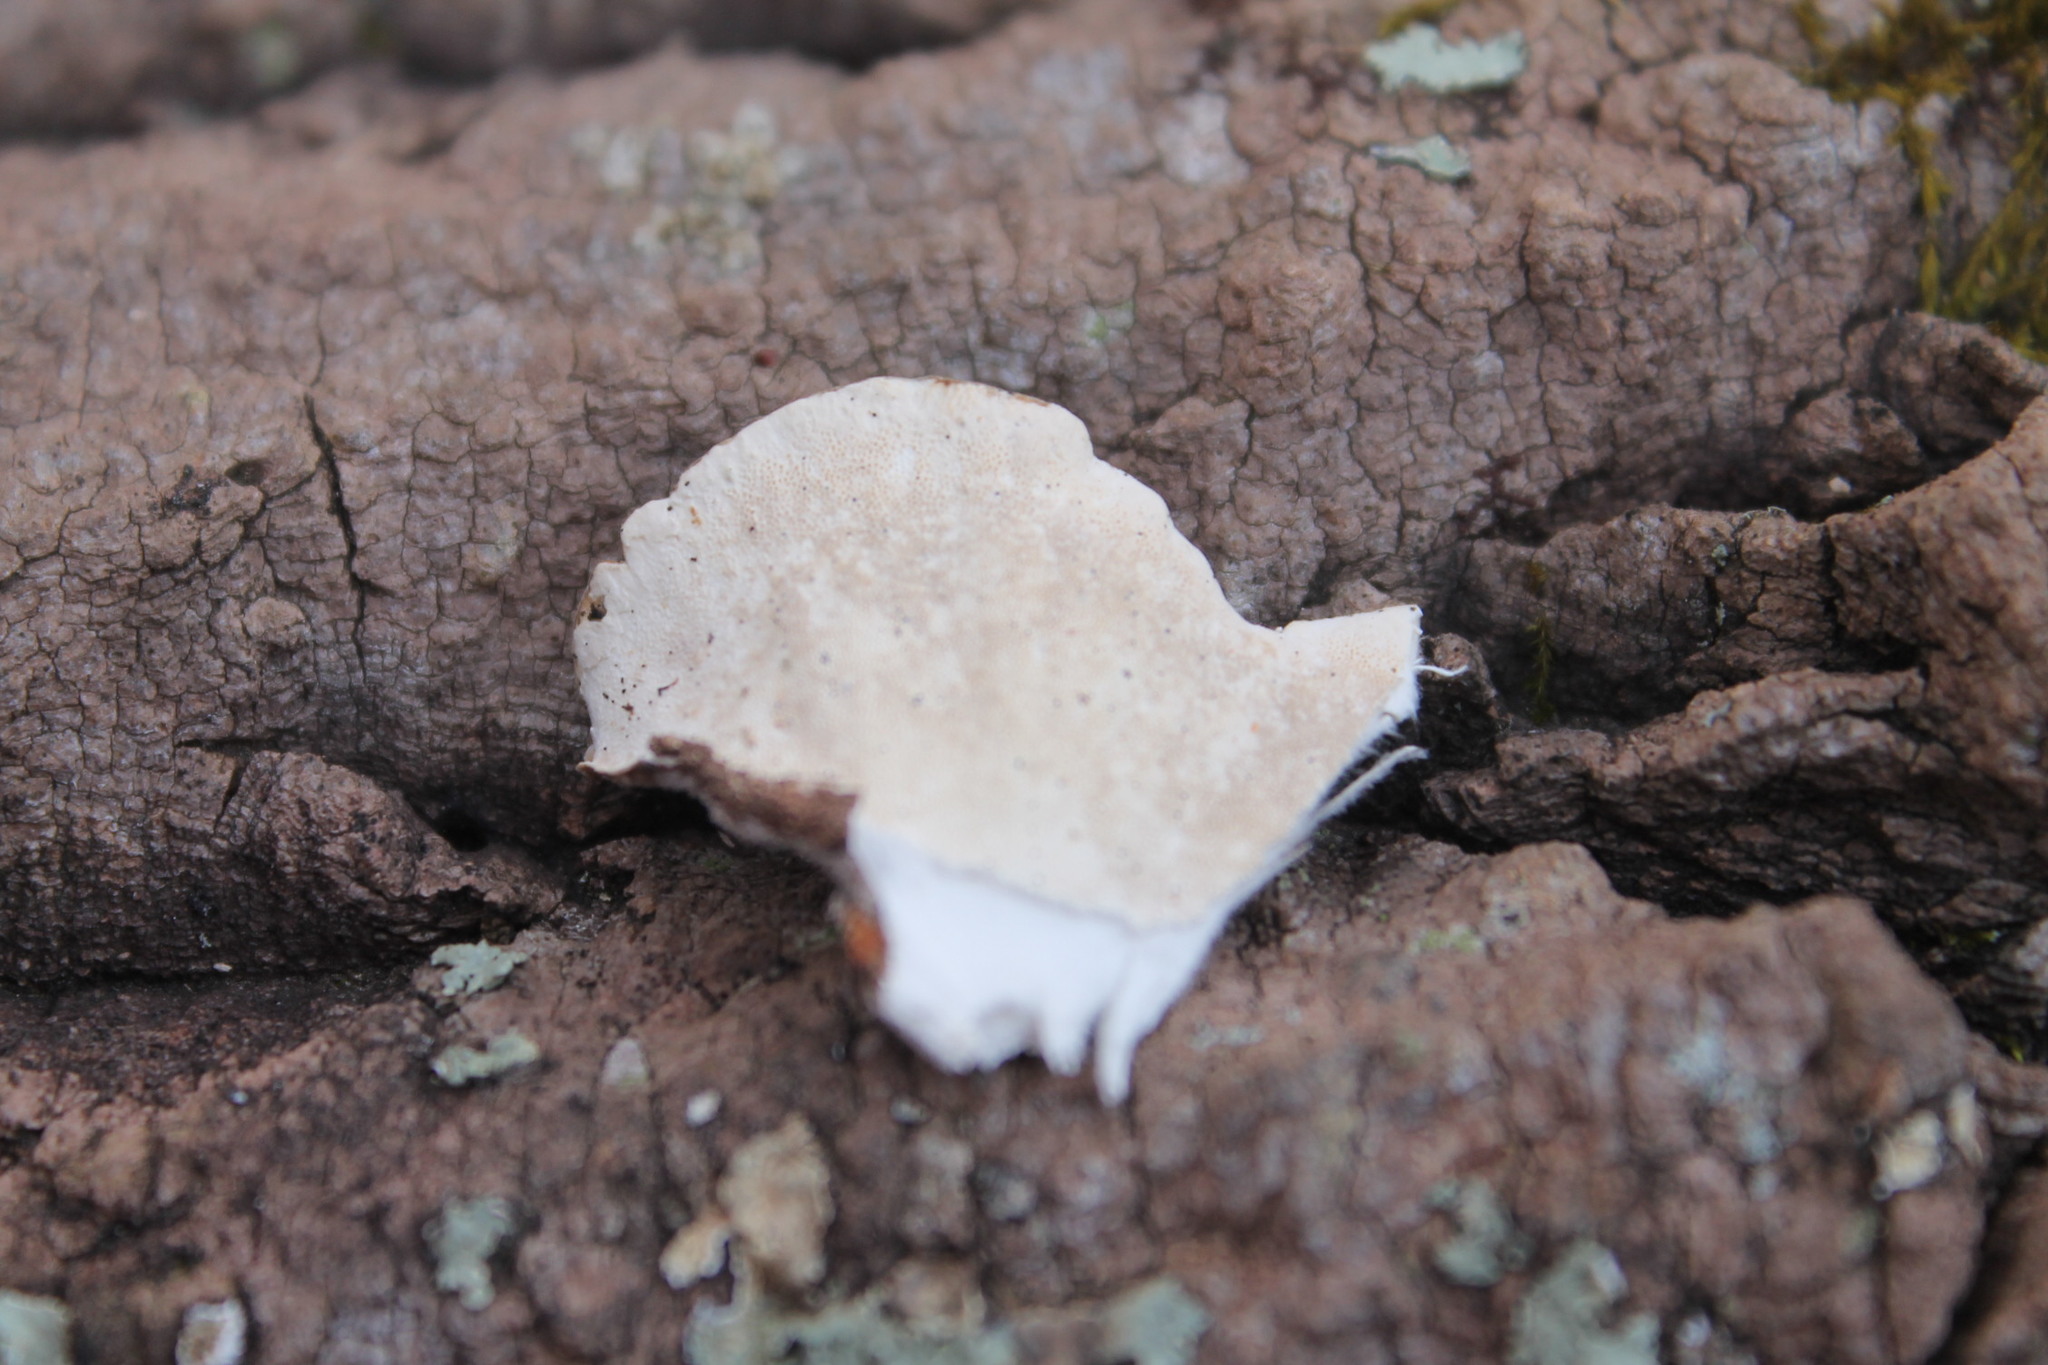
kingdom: Fungi
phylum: Basidiomycota
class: Agaricomycetes
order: Polyporales
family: Polyporaceae
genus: Trametes
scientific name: Trametes versicolor
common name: Turkeytail
